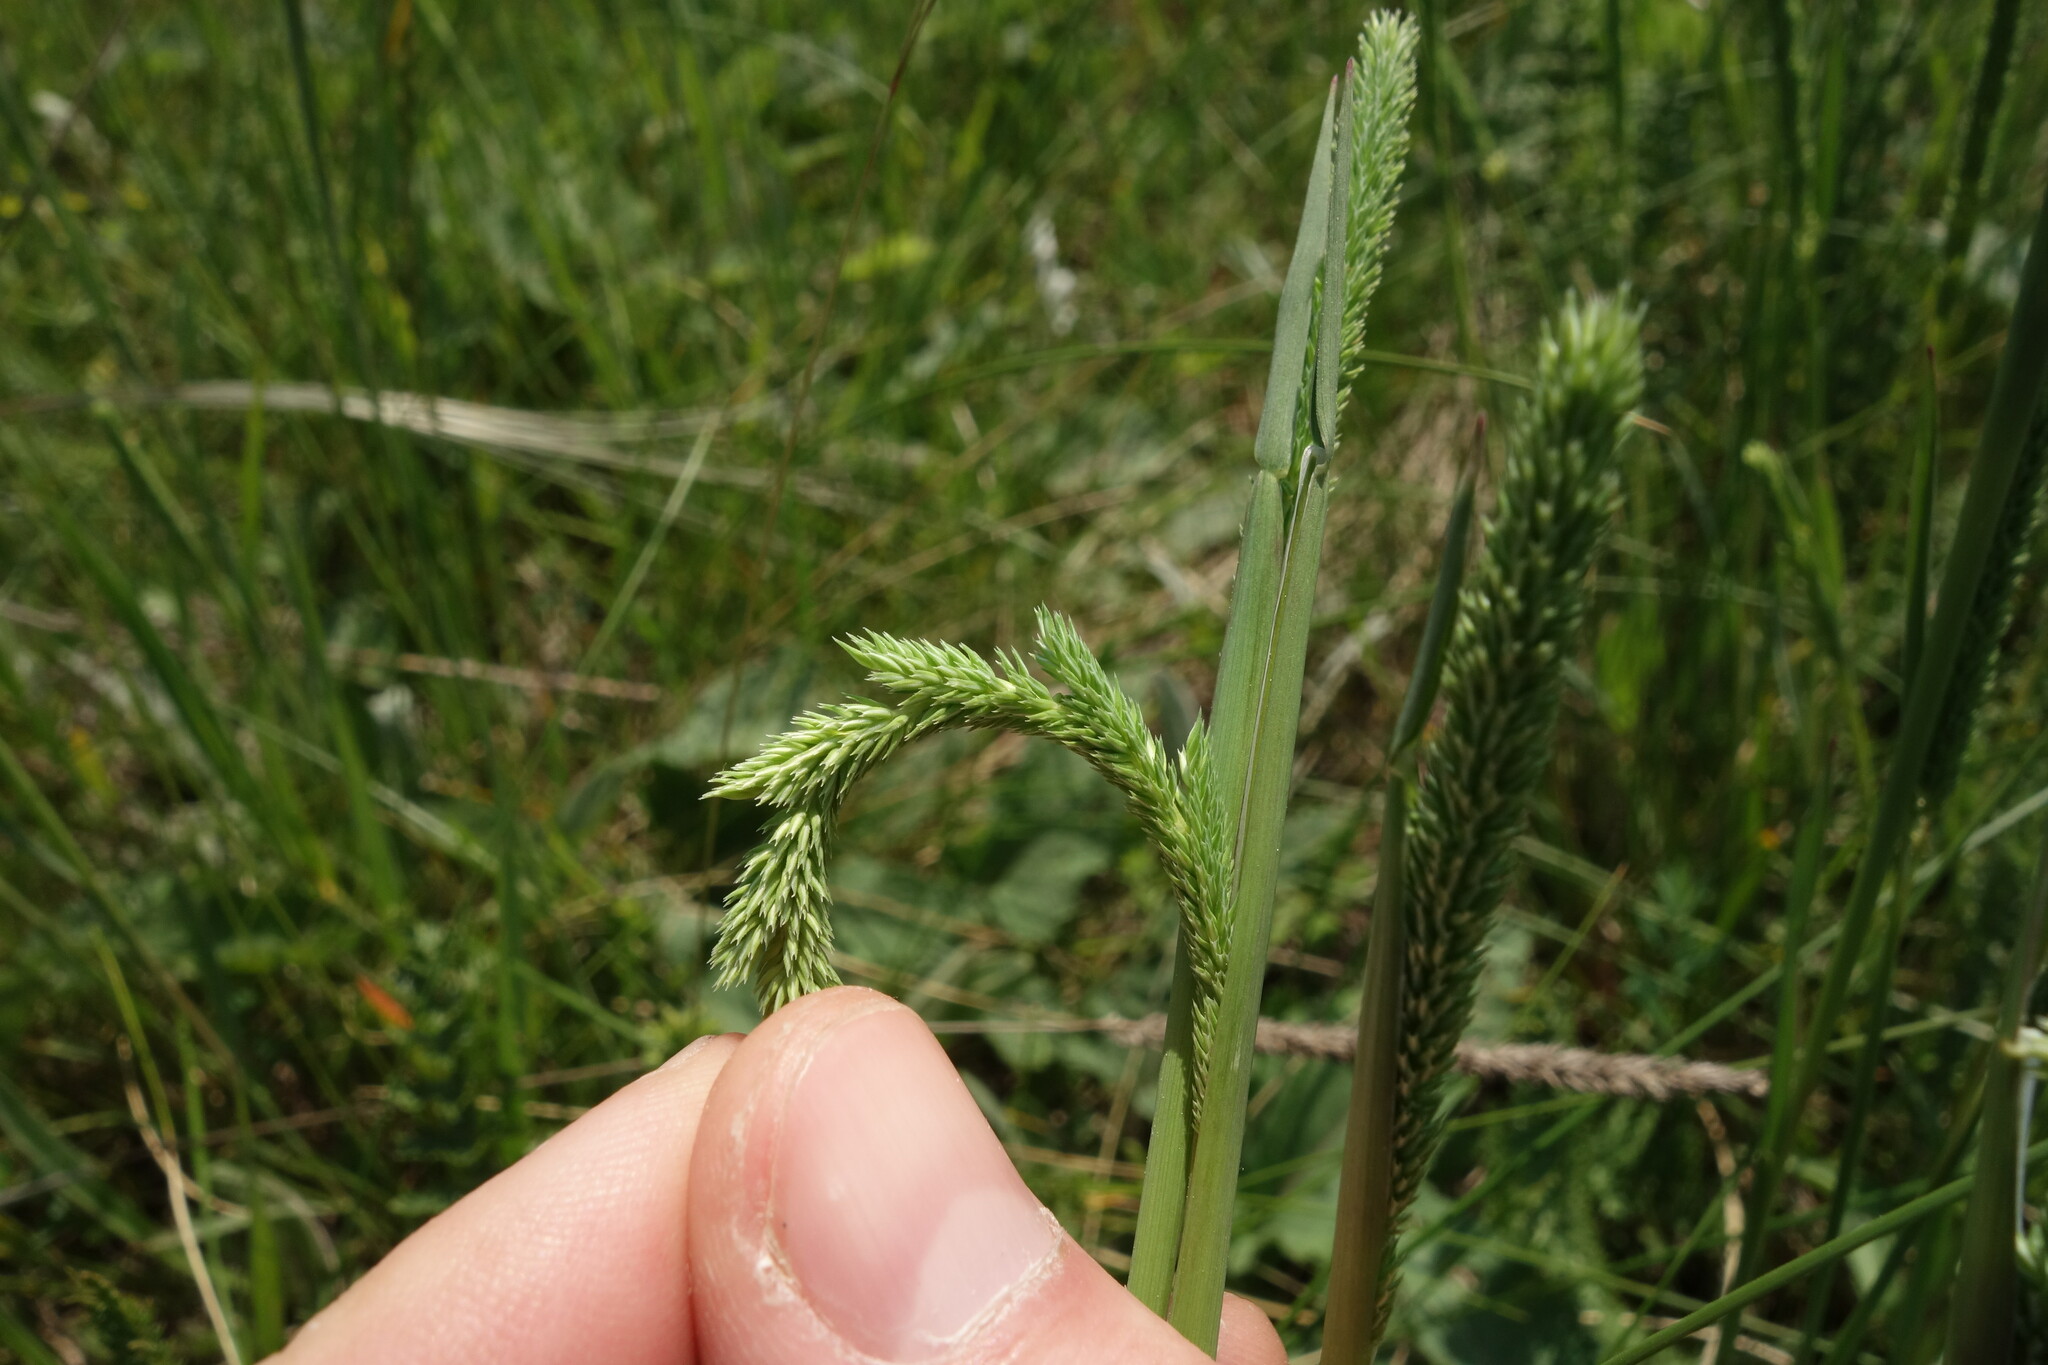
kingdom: Plantae
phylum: Tracheophyta
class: Liliopsida
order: Poales
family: Poaceae
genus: Phleum
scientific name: Phleum phleoides
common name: Purple-stem cat's-tail
